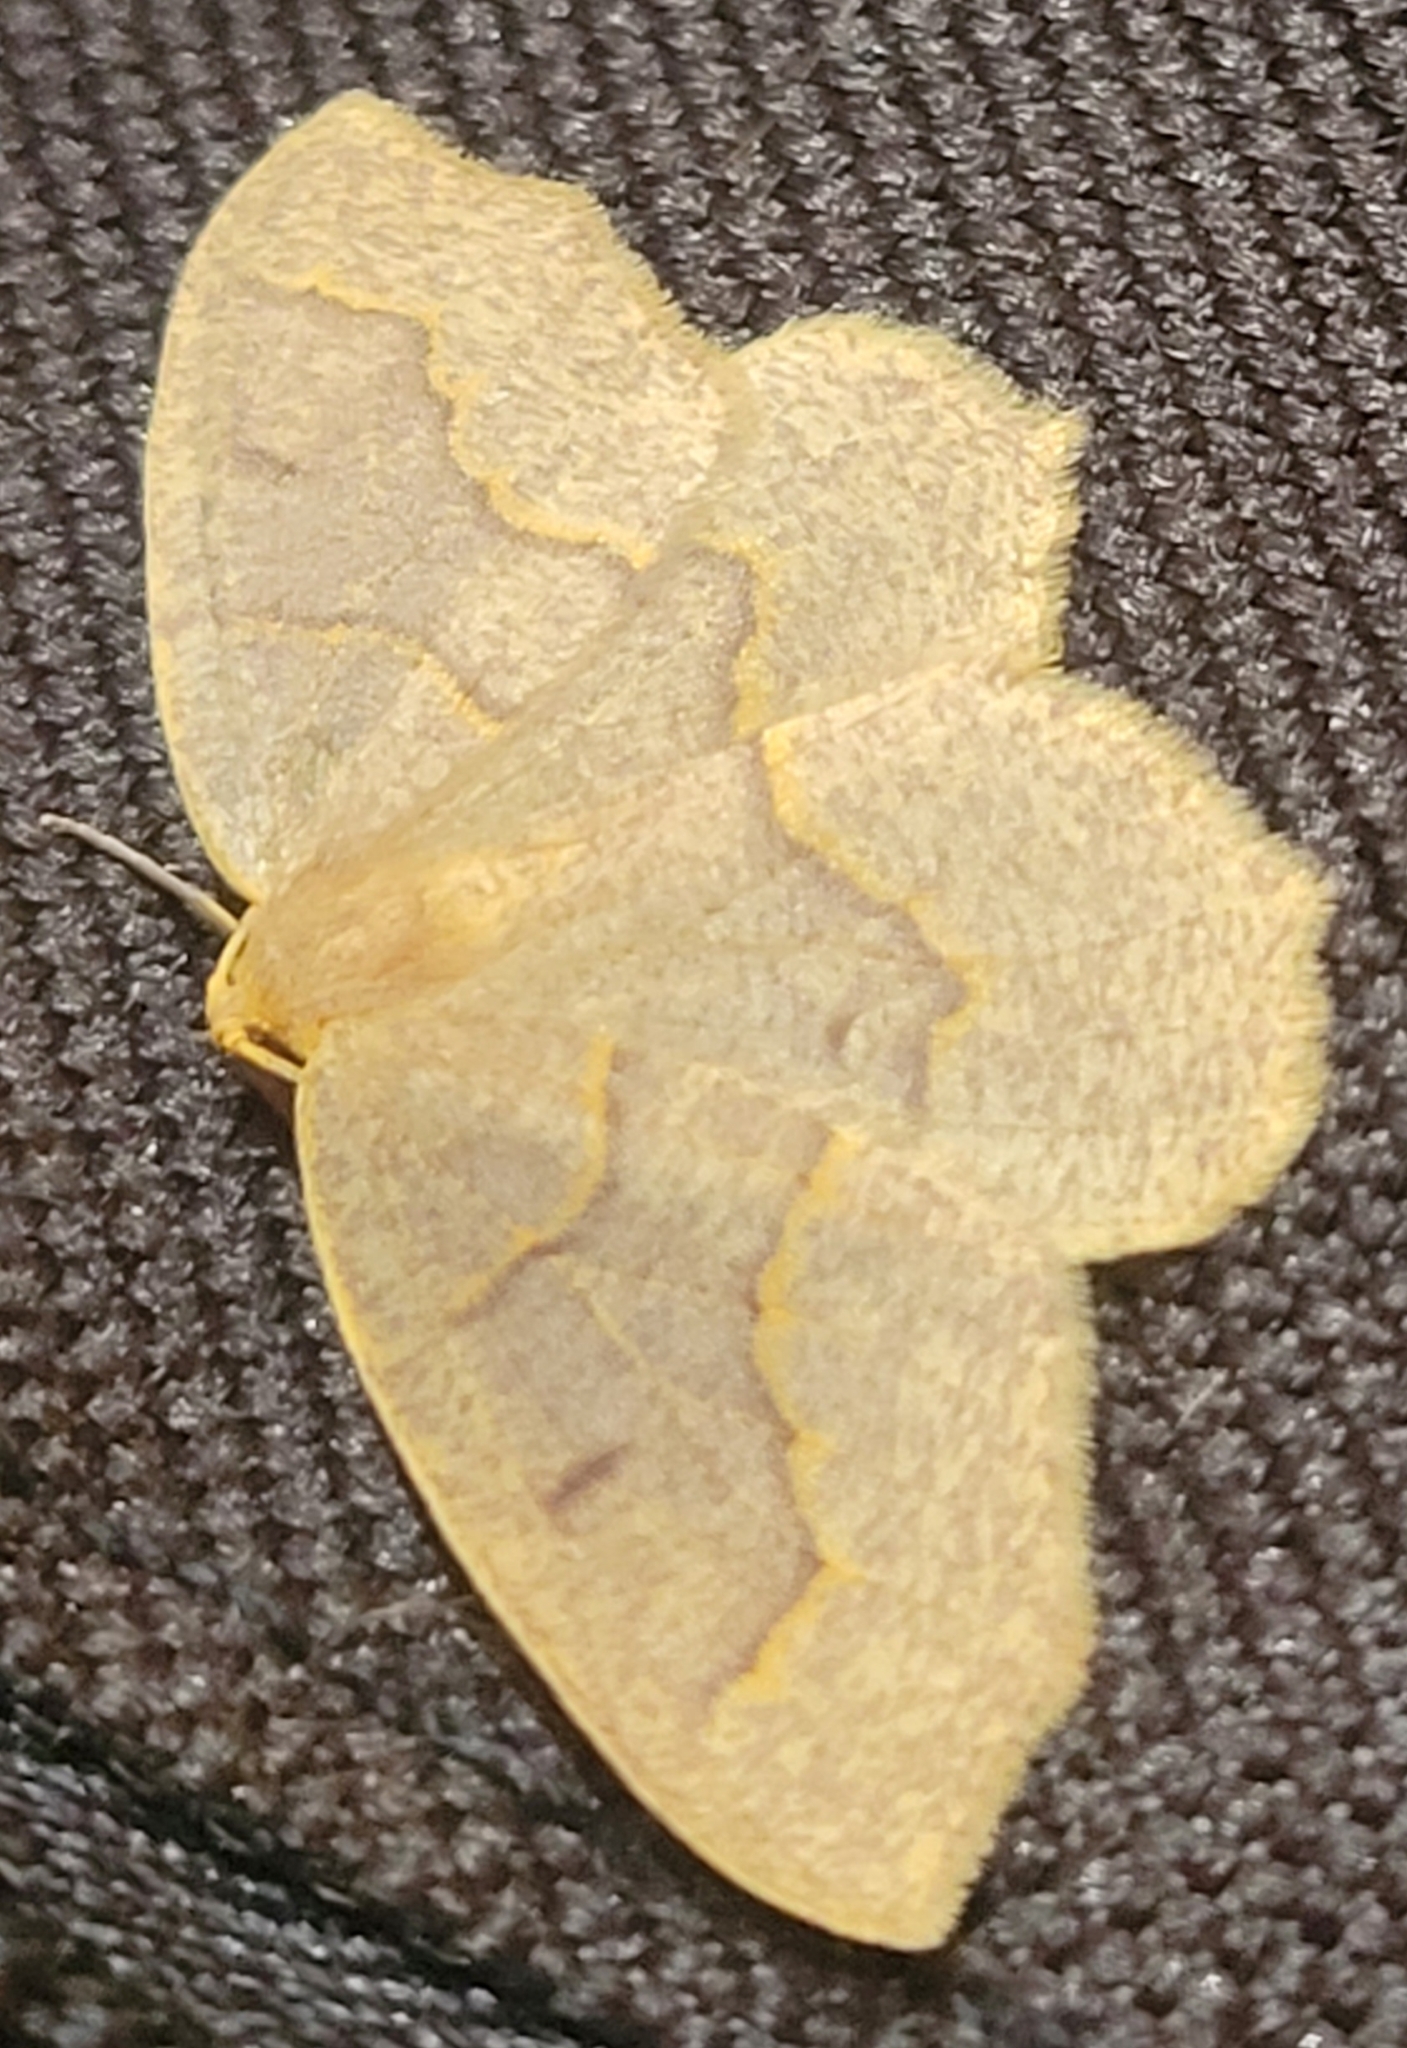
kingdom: Animalia
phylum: Arthropoda
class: Insecta
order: Lepidoptera
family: Geometridae
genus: Lambdina
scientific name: Lambdina fiscellaria
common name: Hemlock looper
